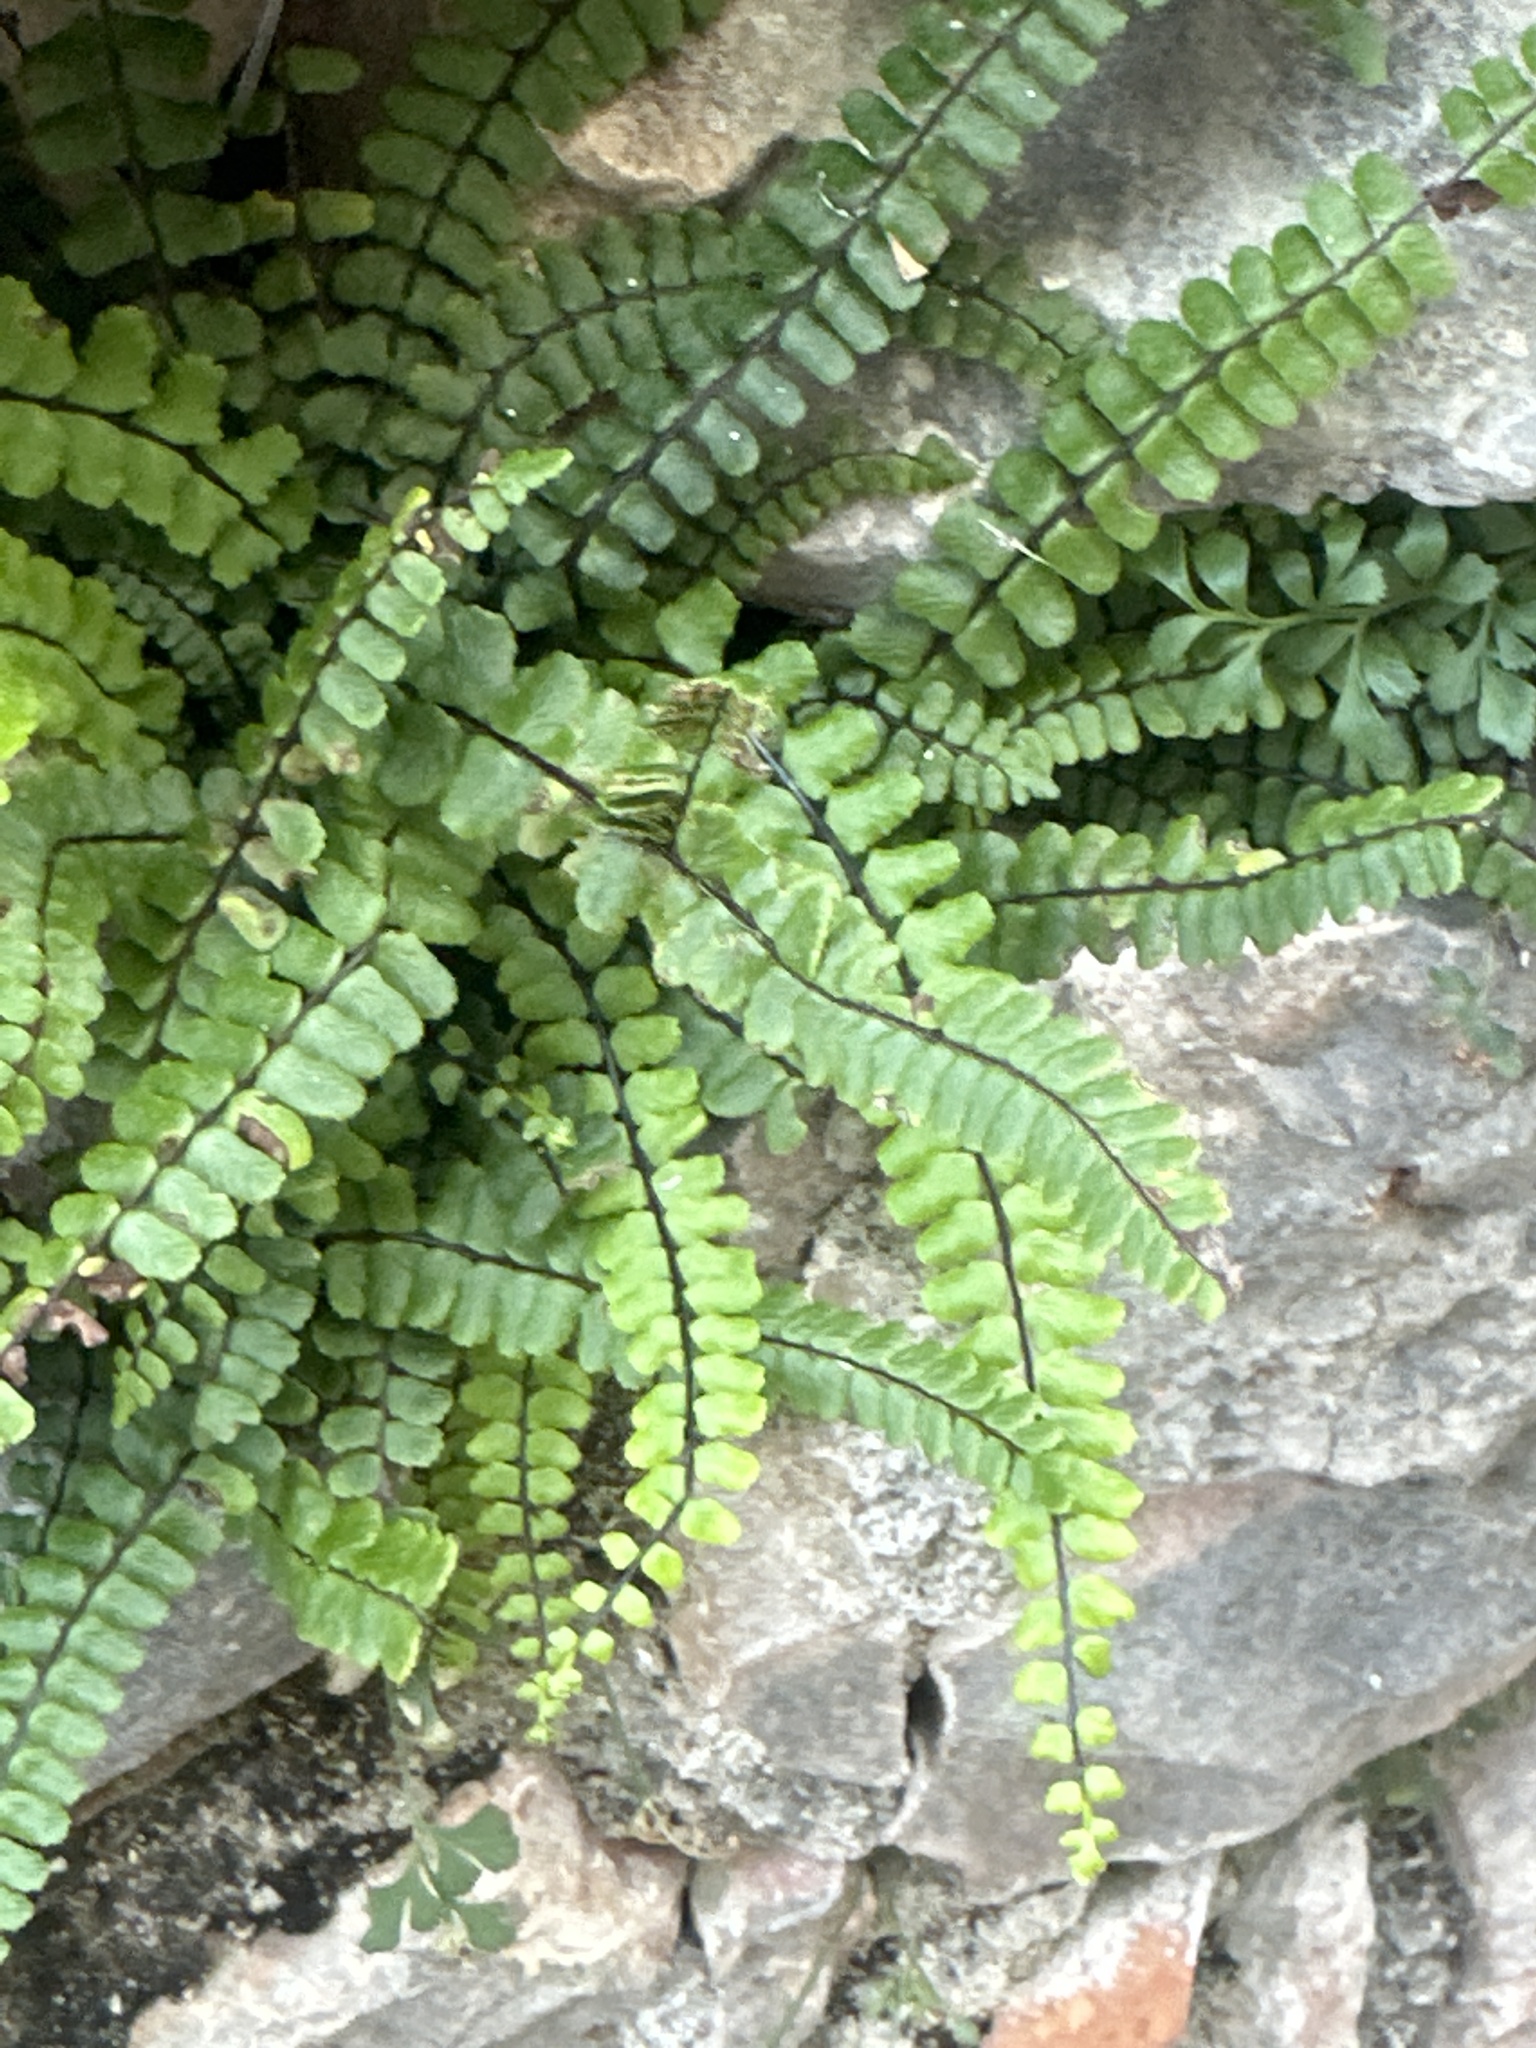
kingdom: Plantae
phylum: Tracheophyta
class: Polypodiopsida
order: Polypodiales
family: Aspleniaceae
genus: Asplenium
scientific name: Asplenium trichomanes
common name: Maidenhair spleenwort
